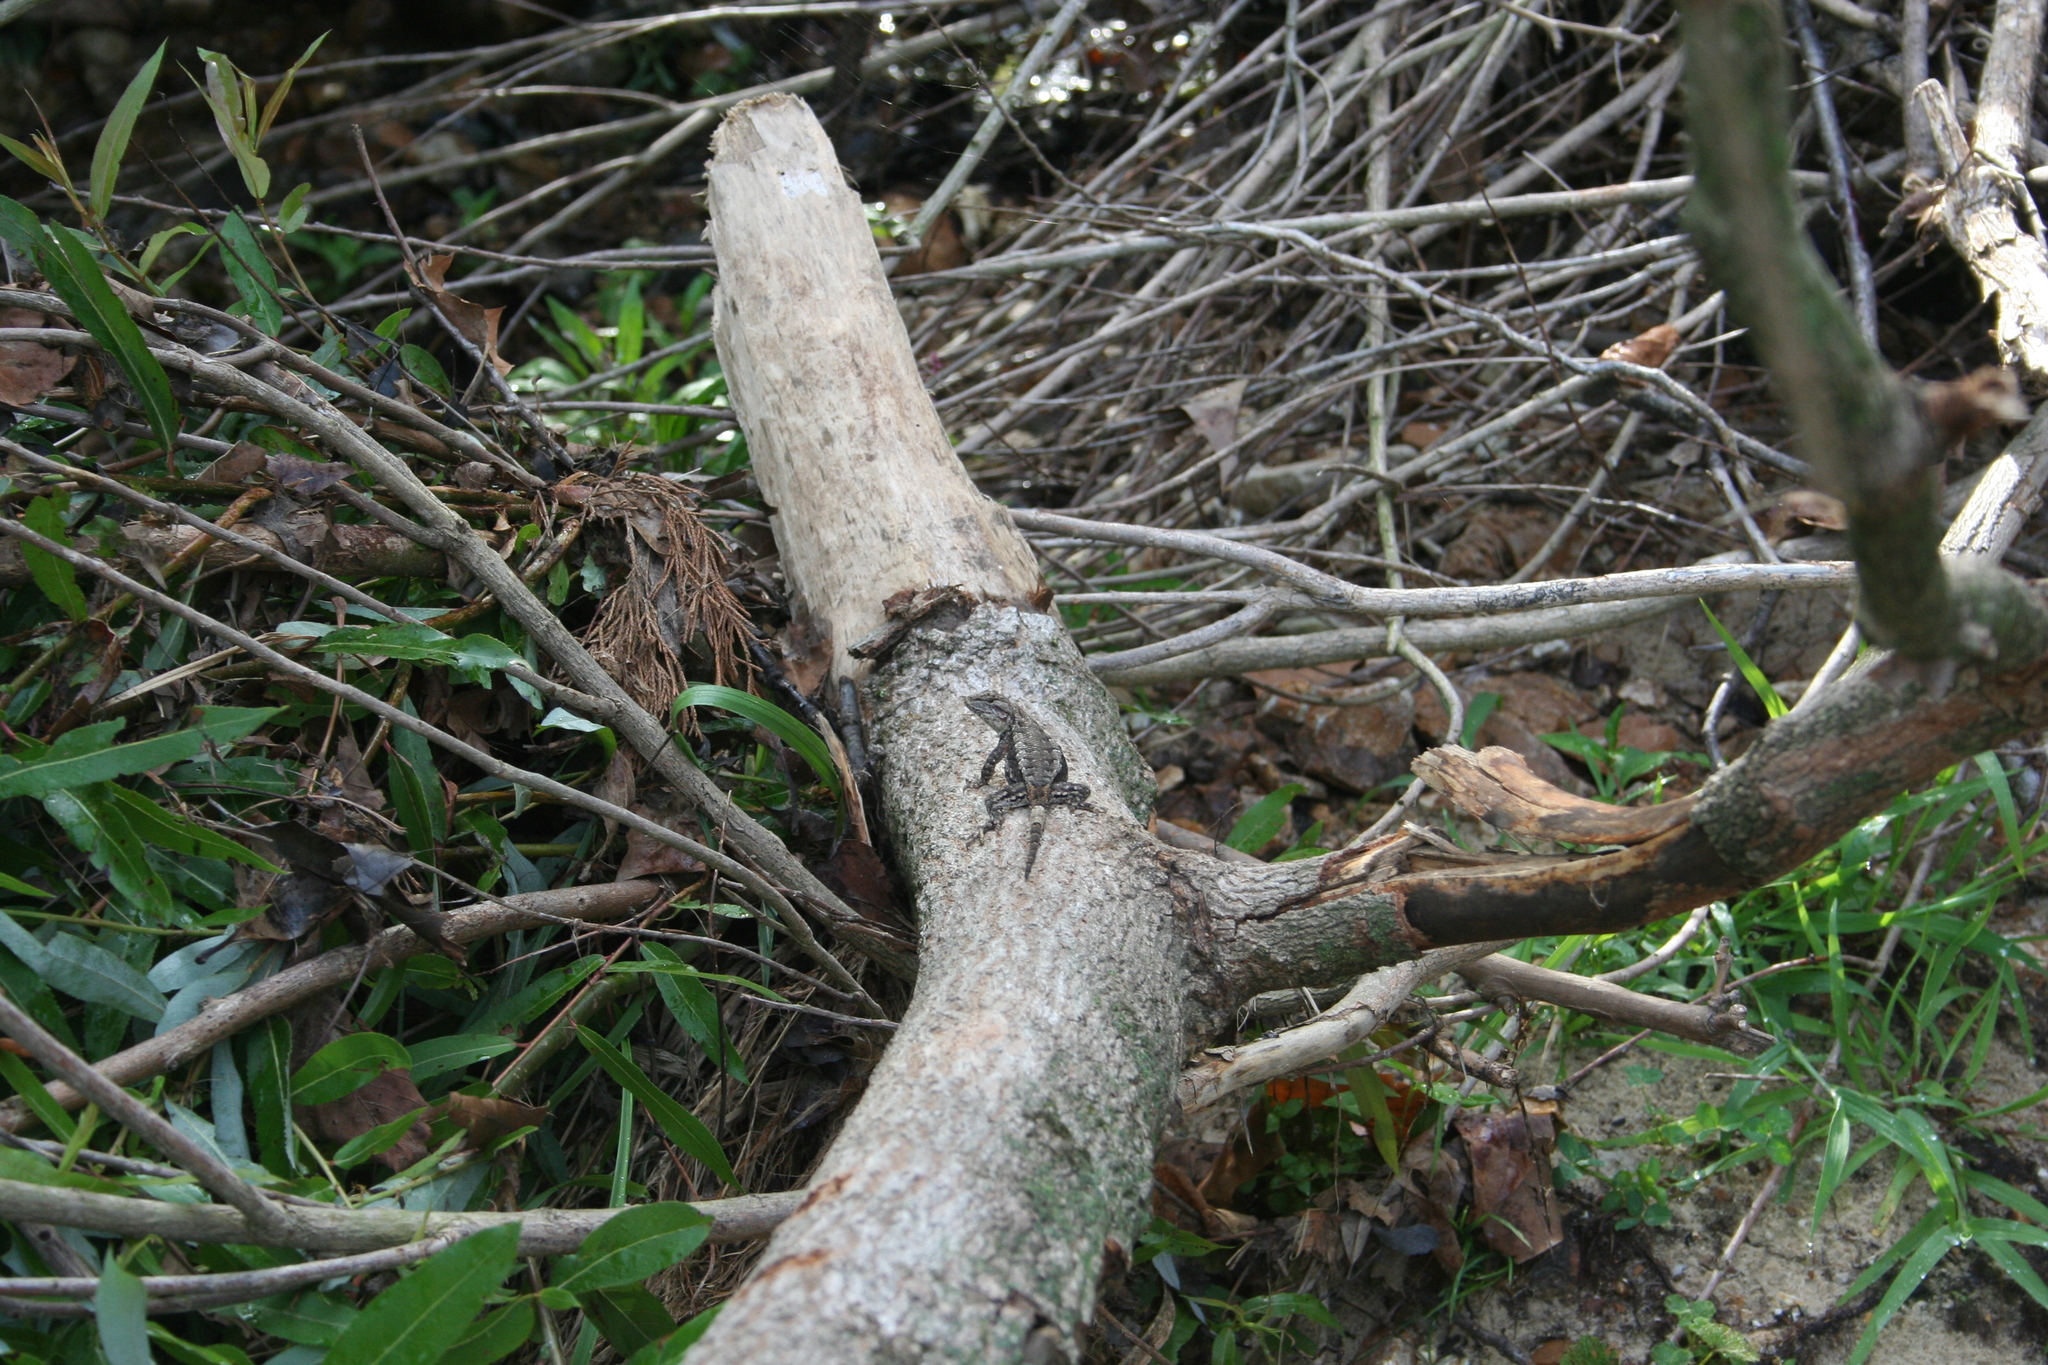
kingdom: Animalia
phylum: Chordata
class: Squamata
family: Phrynosomatidae
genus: Sceloporus
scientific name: Sceloporus consobrinus
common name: Southern prairie lizard
